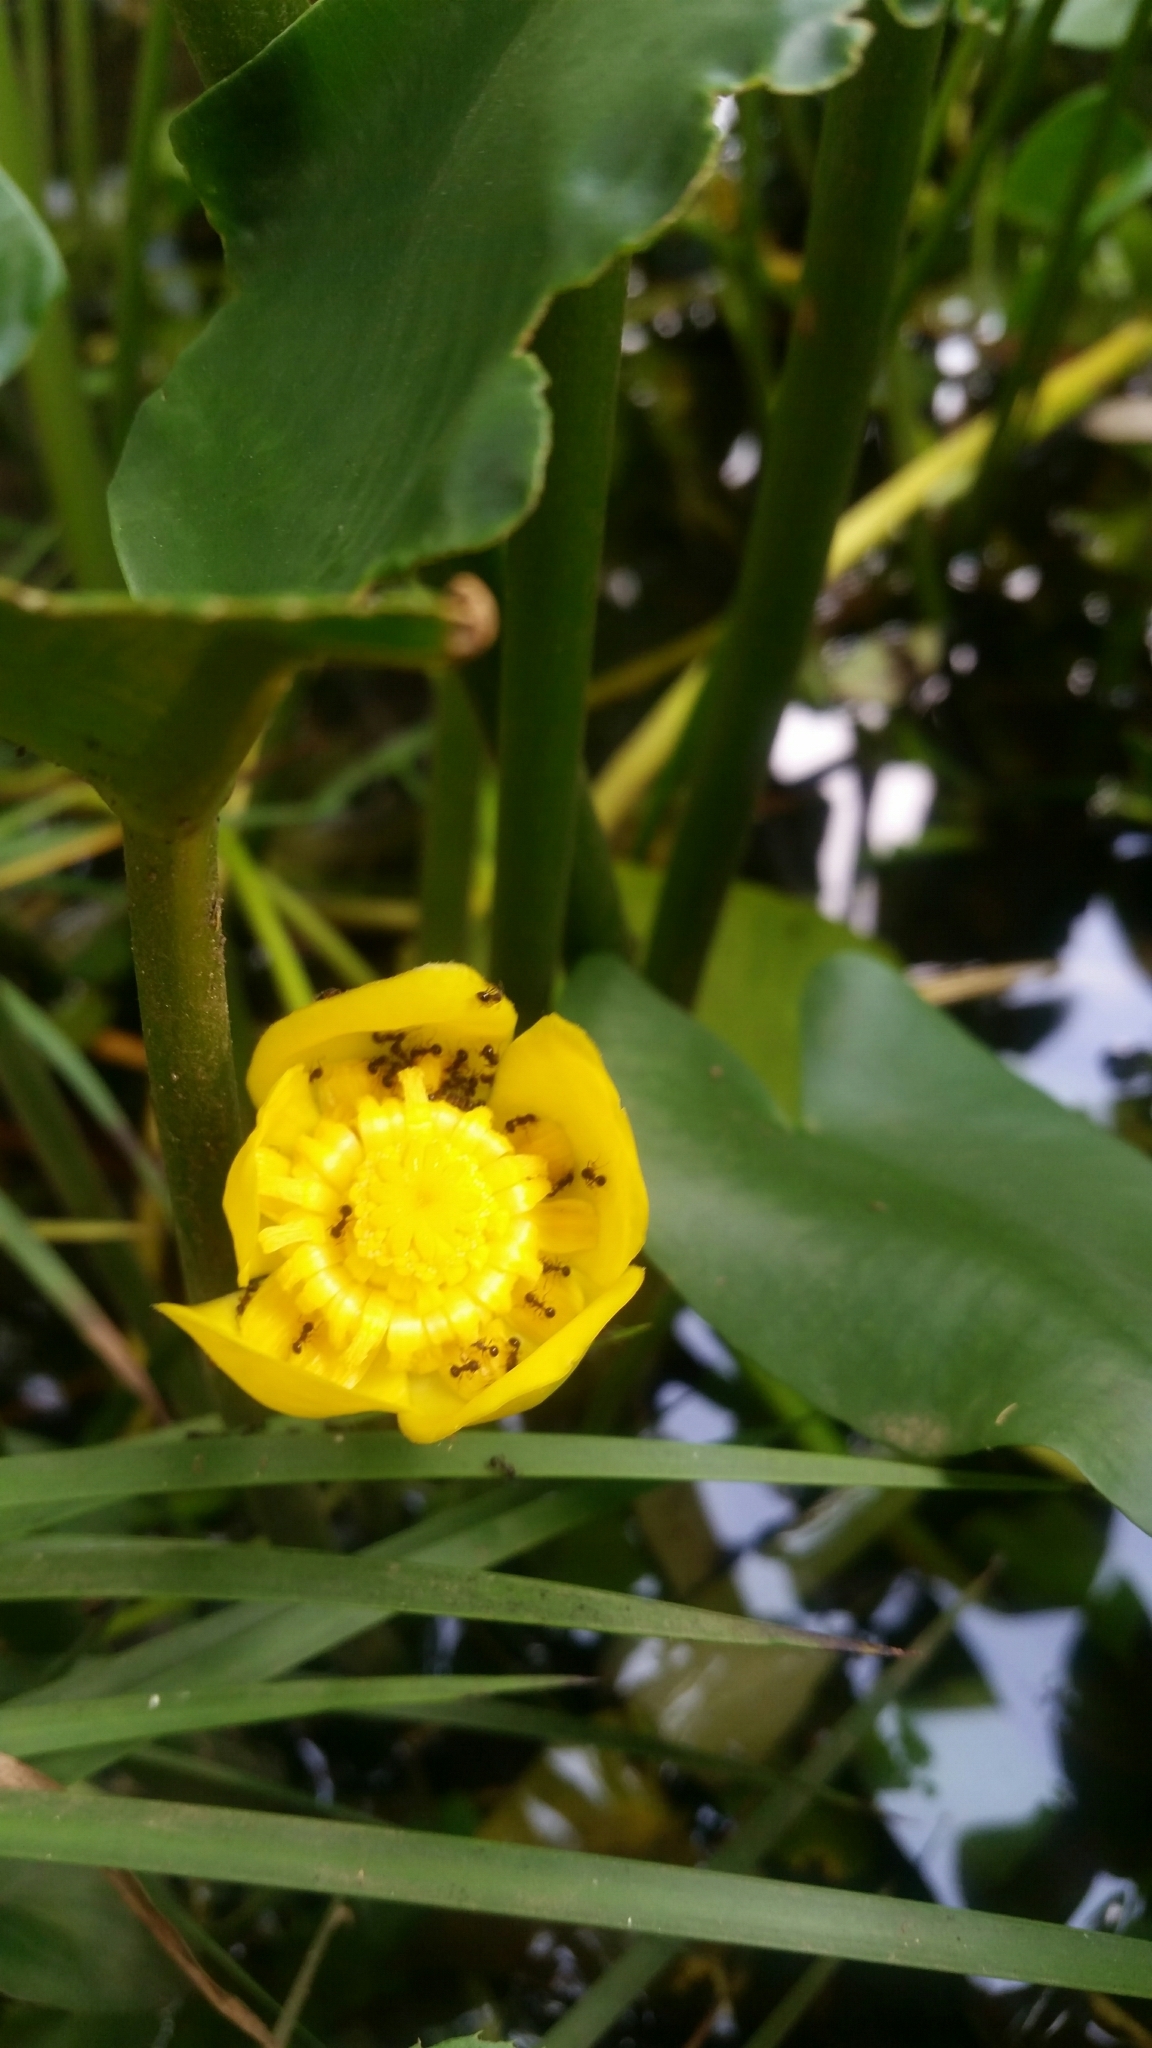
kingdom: Plantae
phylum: Tracheophyta
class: Magnoliopsida
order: Nymphaeales
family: Nymphaeaceae
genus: Nuphar
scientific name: Nuphar japonica
